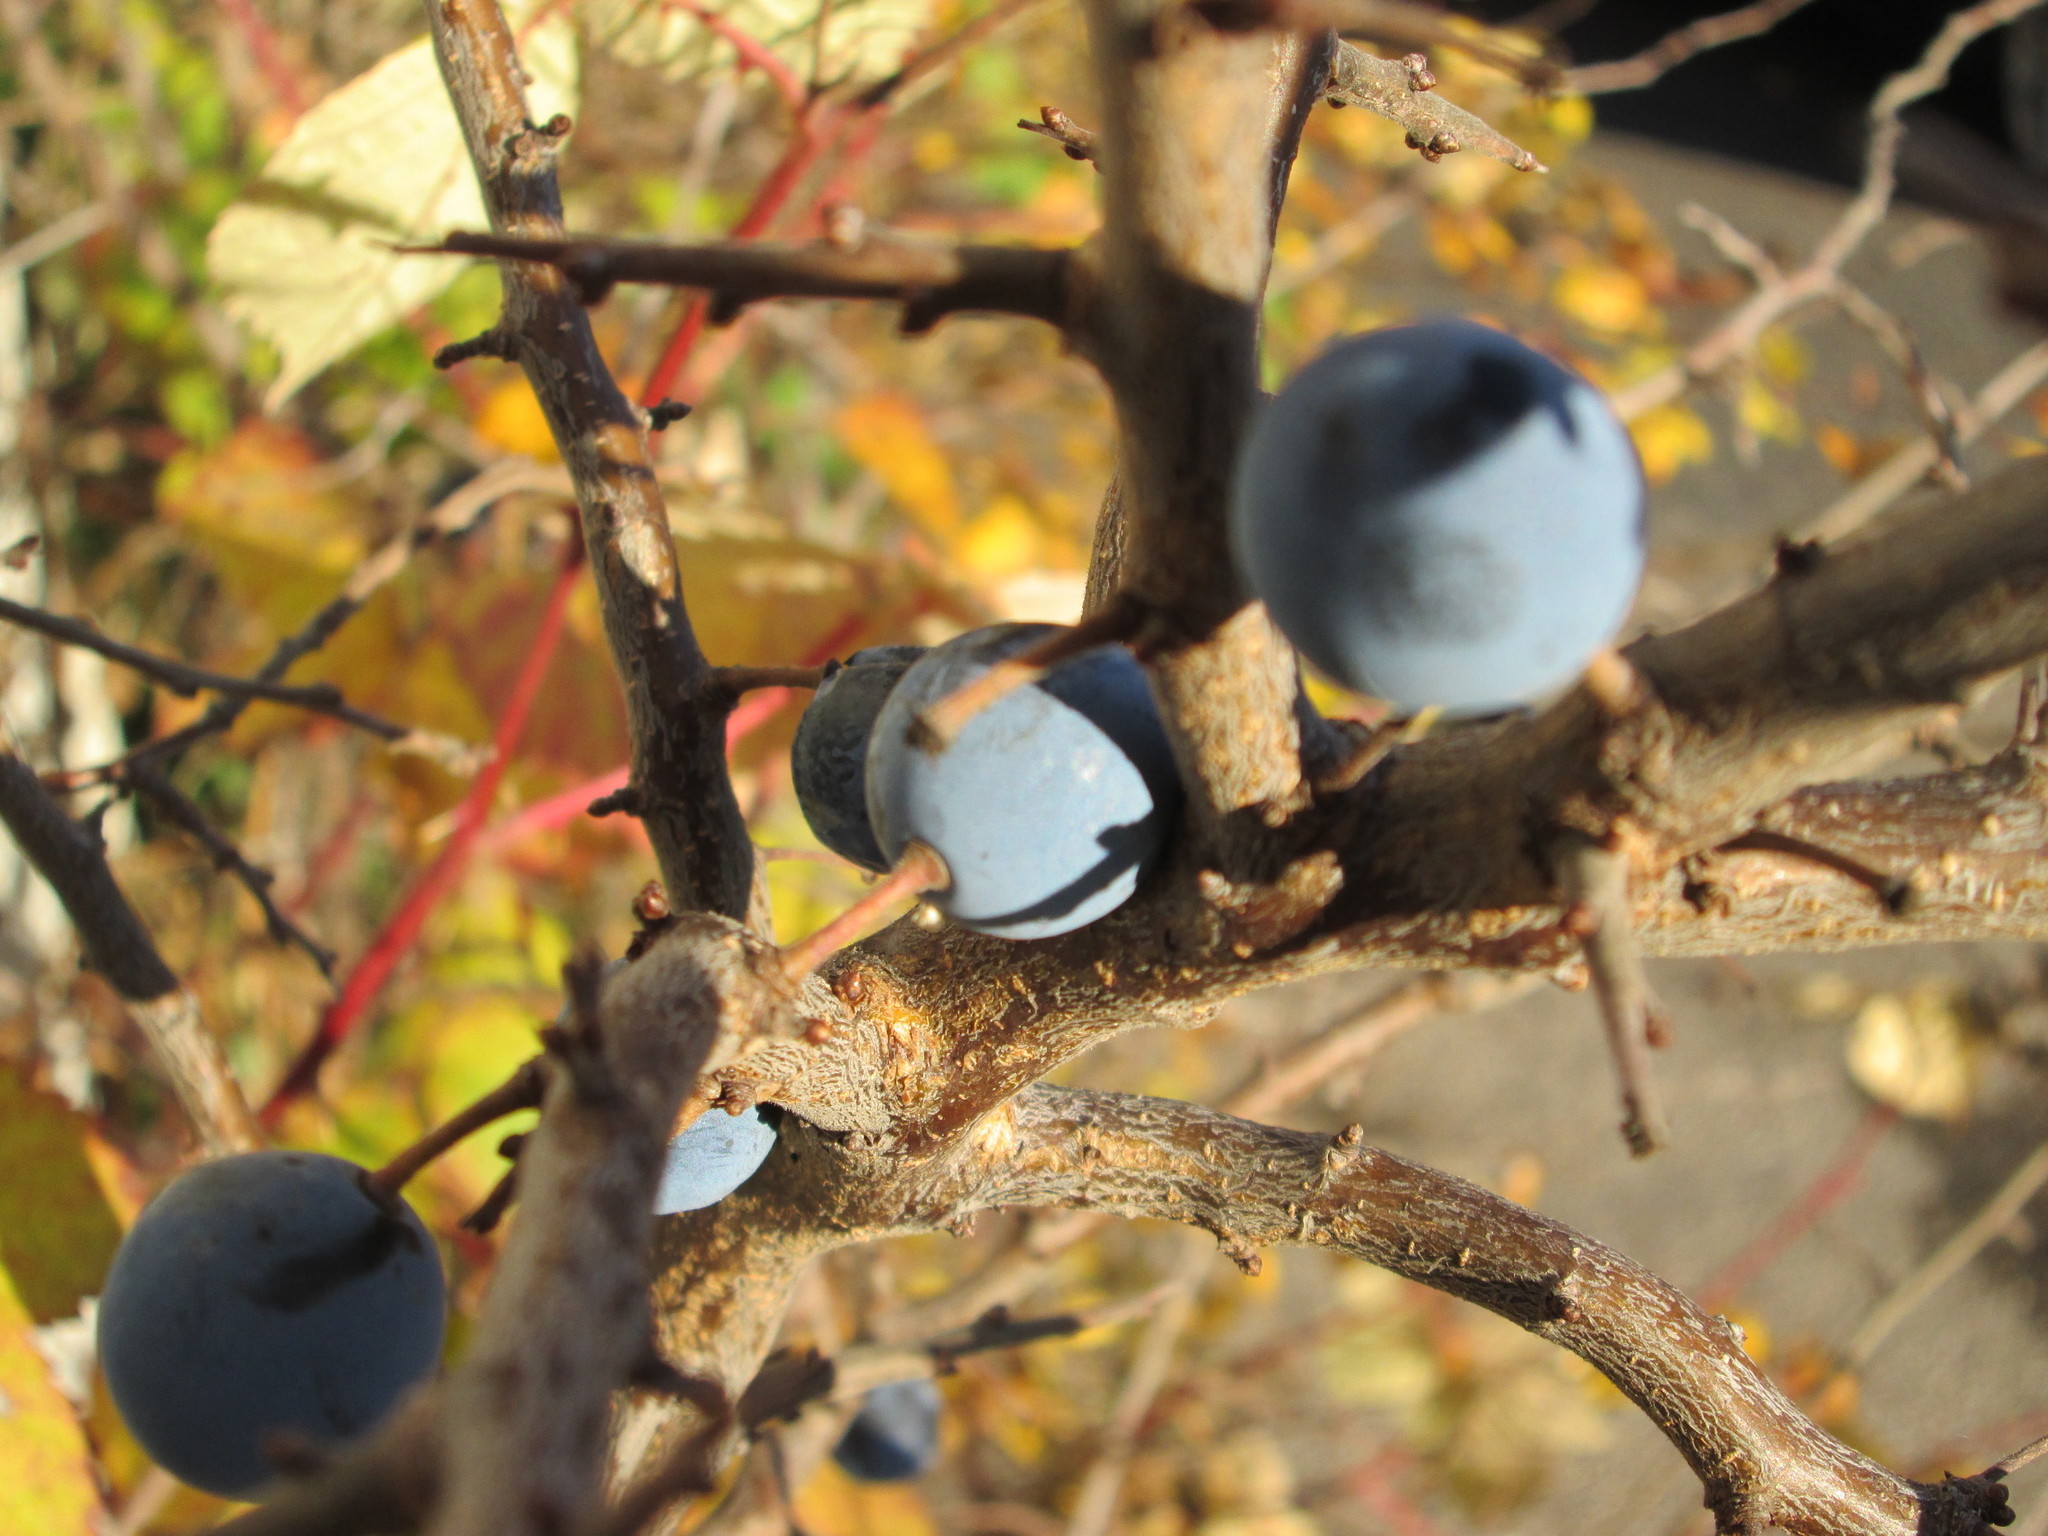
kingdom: Plantae
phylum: Tracheophyta
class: Magnoliopsida
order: Rosales
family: Rosaceae
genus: Prunus
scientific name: Prunus spinosa
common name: Blackthorn
